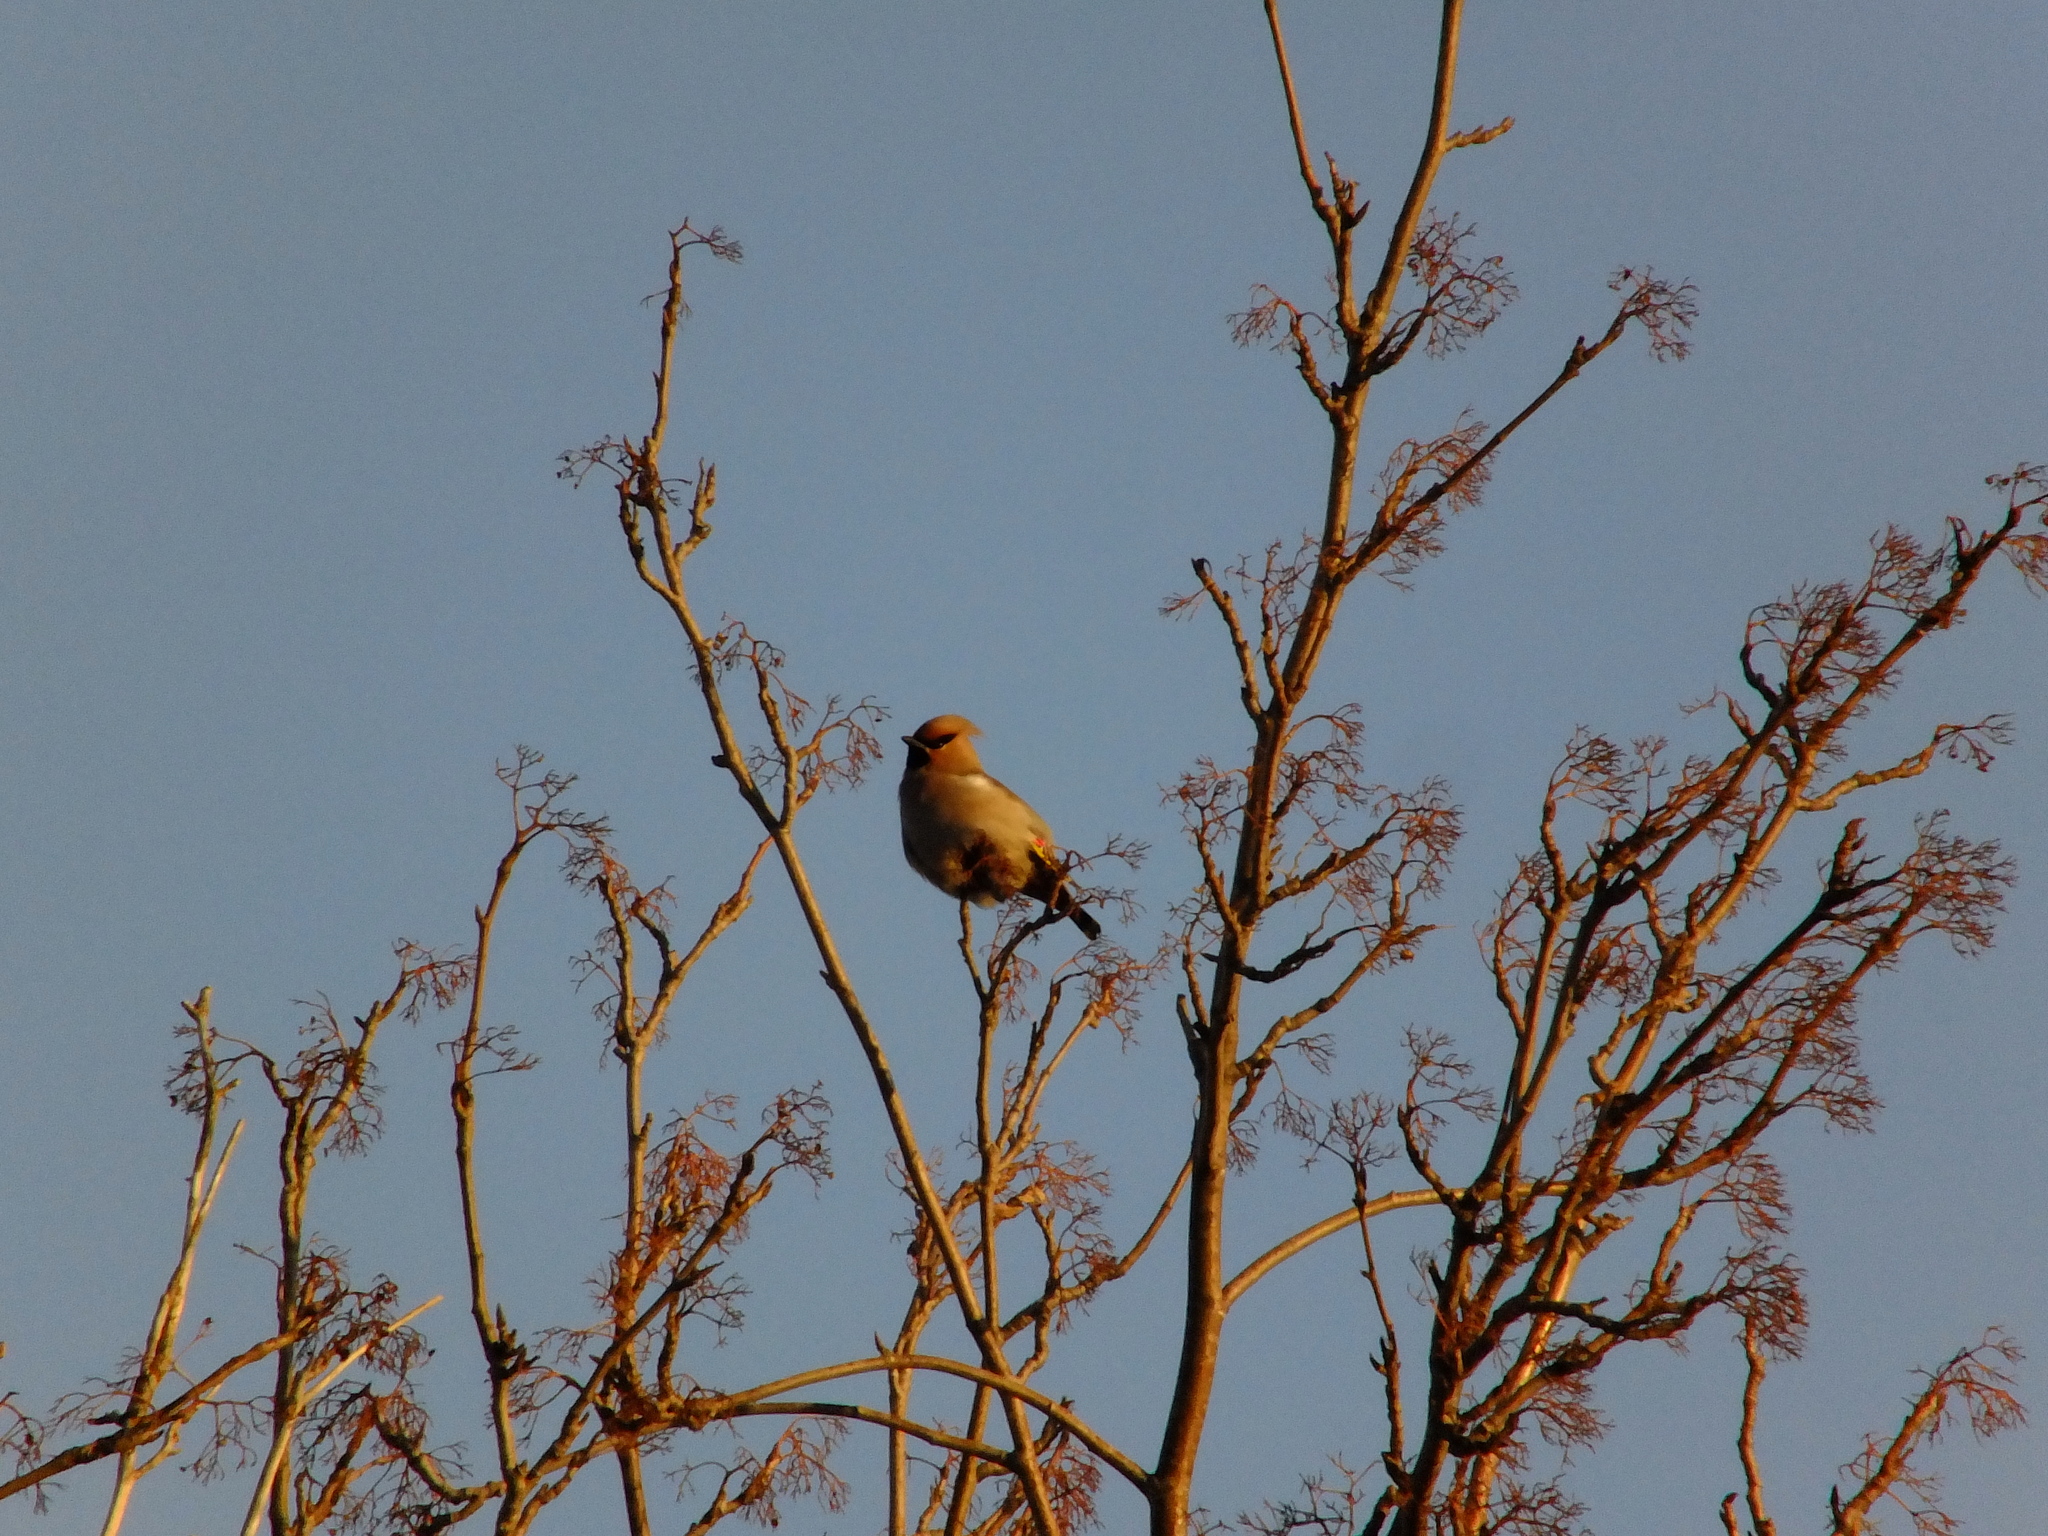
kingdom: Animalia
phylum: Chordata
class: Aves
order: Passeriformes
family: Bombycillidae
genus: Bombycilla
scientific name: Bombycilla garrulus
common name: Bohemian waxwing
